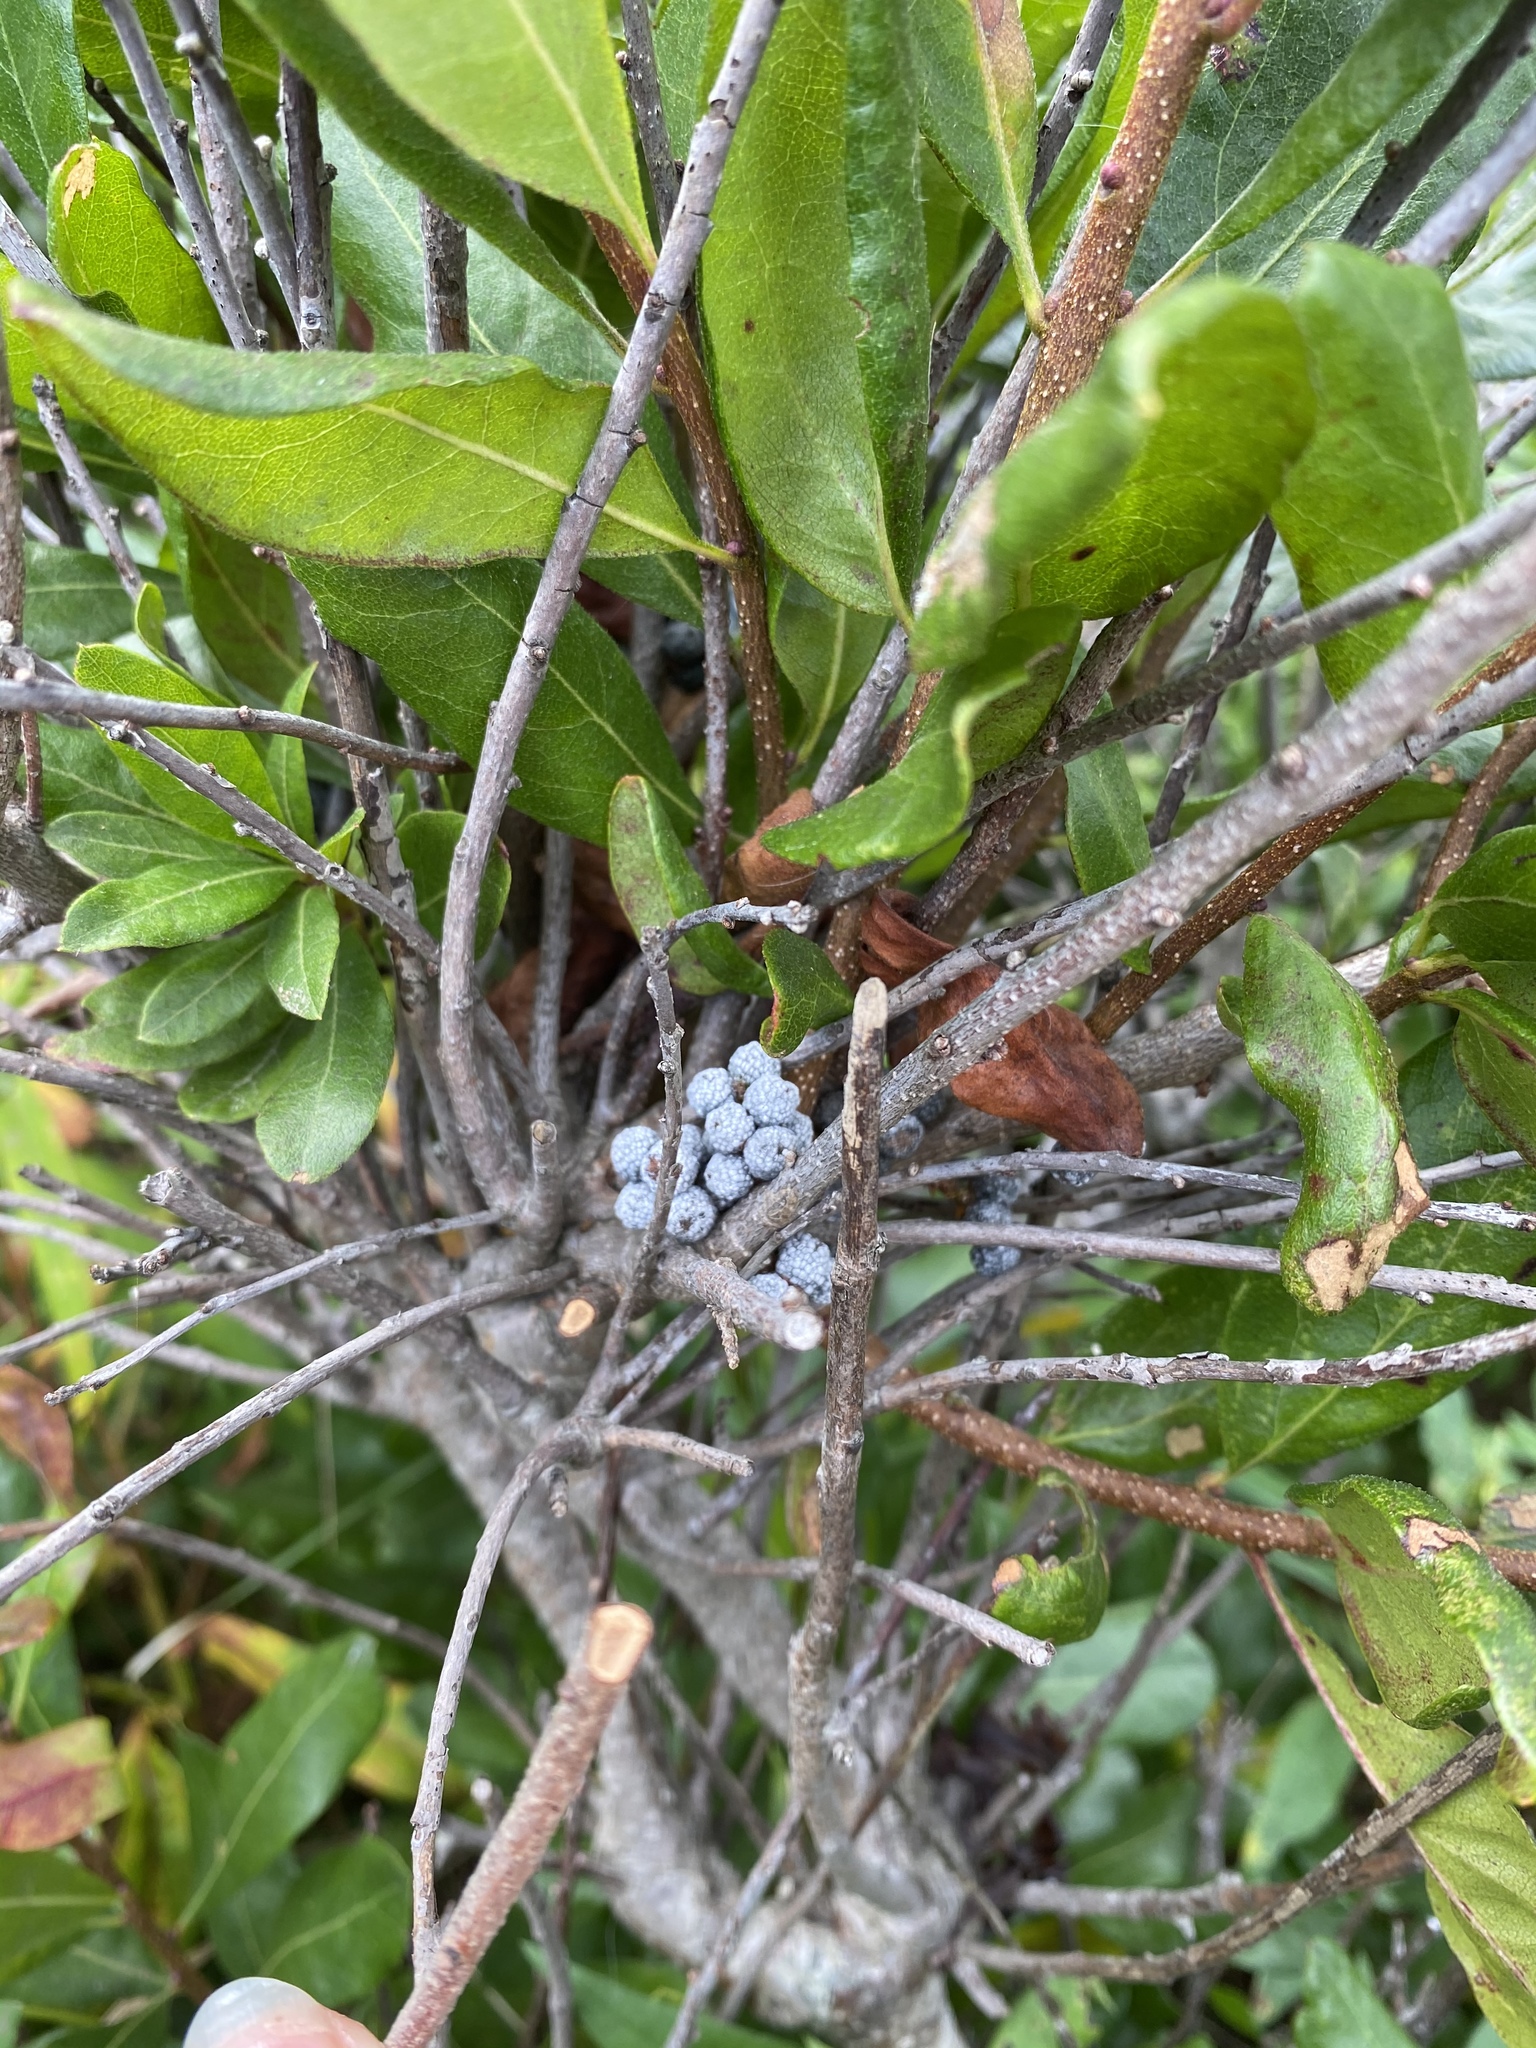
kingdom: Plantae
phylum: Tracheophyta
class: Magnoliopsida
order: Fagales
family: Myricaceae
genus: Morella
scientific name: Morella pensylvanica
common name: Northern bayberry
